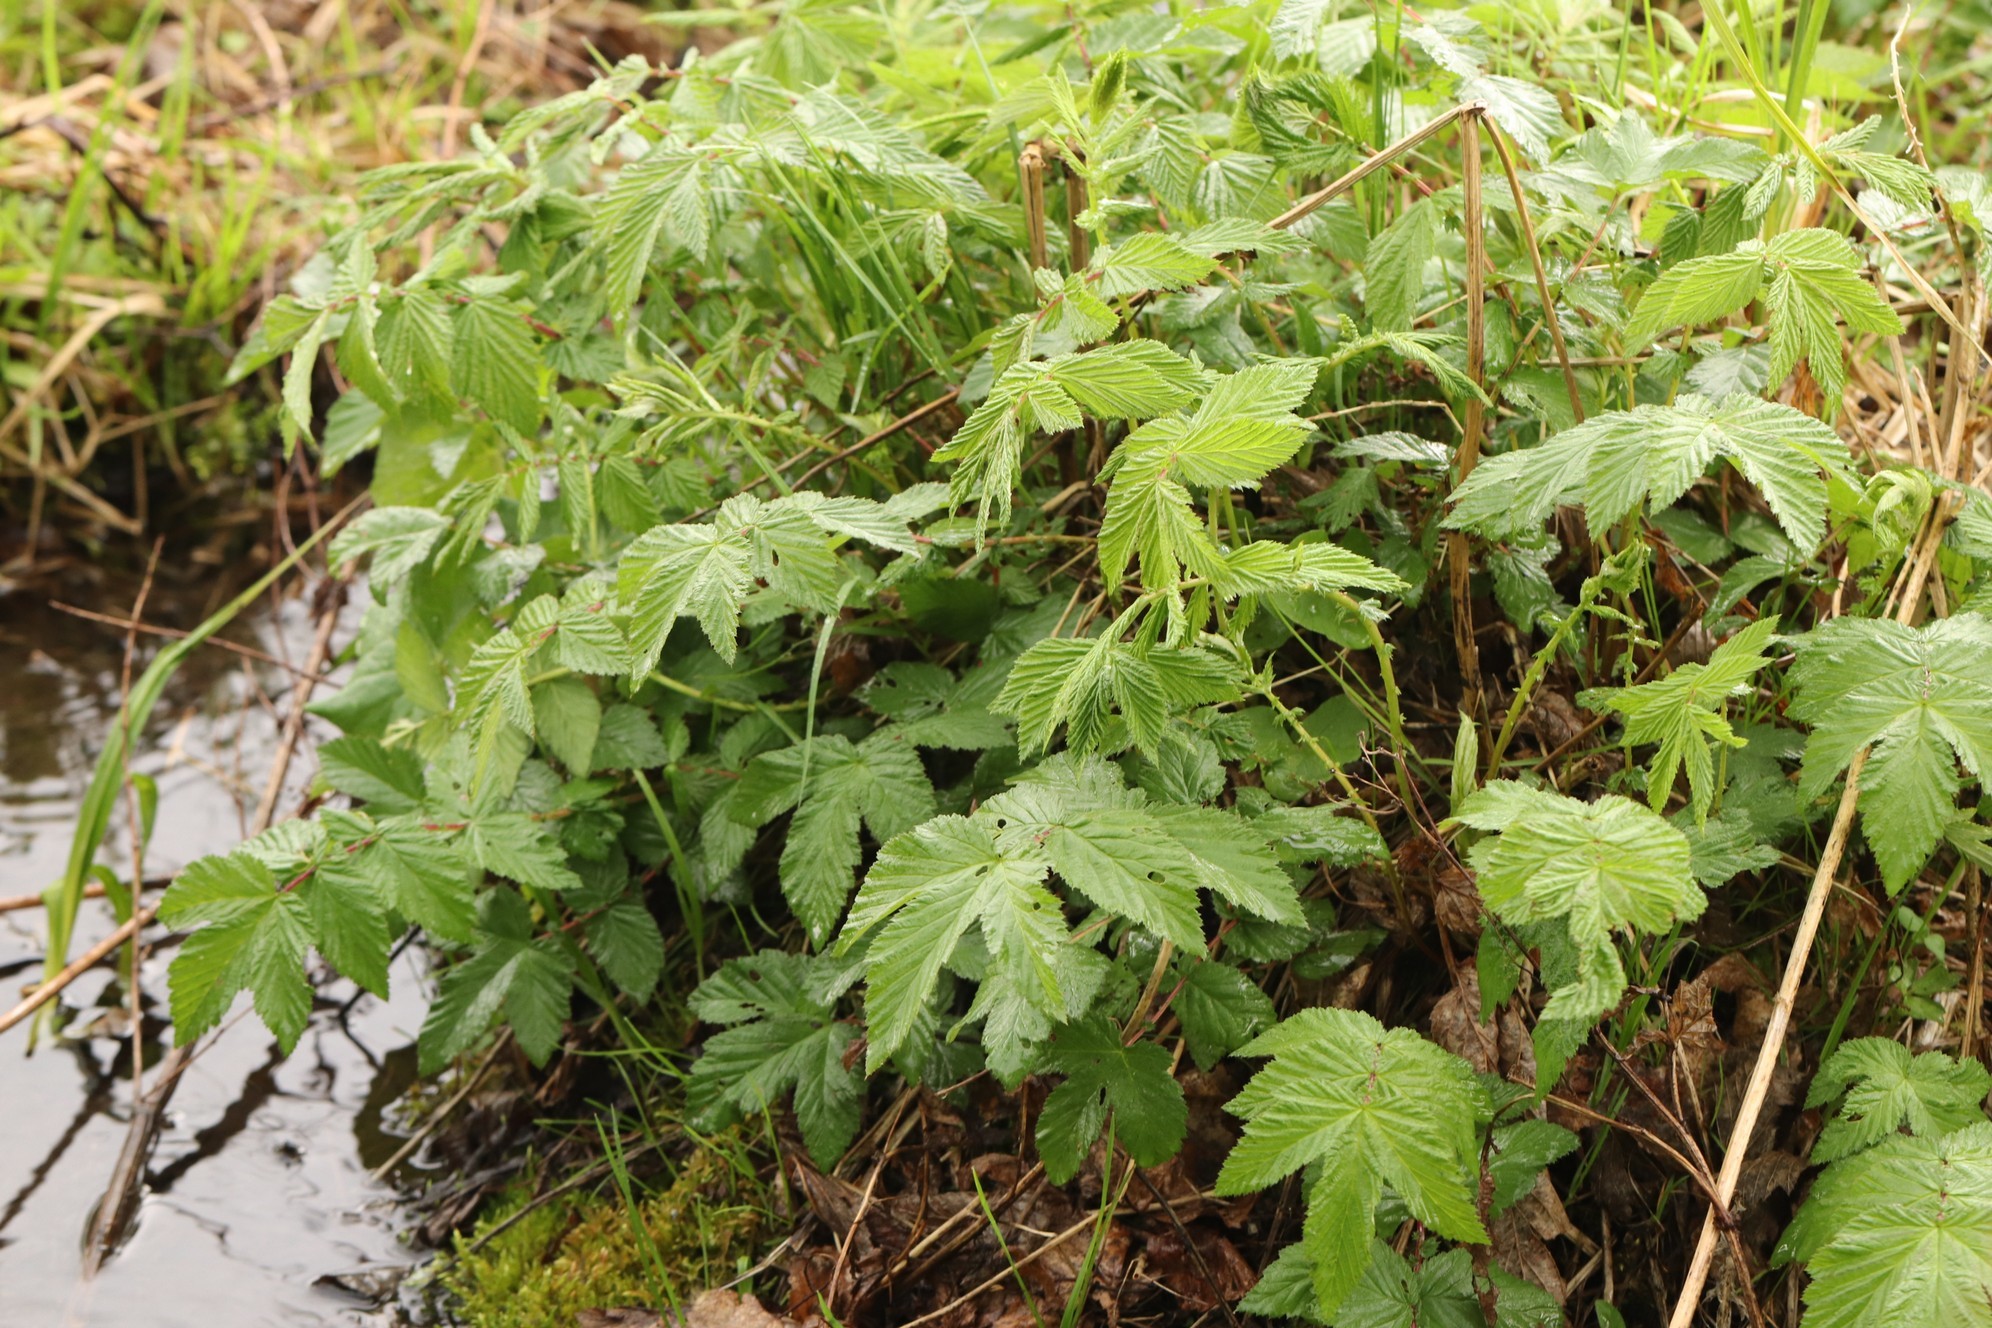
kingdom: Plantae
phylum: Tracheophyta
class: Magnoliopsida
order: Rosales
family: Rosaceae
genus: Filipendula
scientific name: Filipendula ulmaria
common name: Meadowsweet
